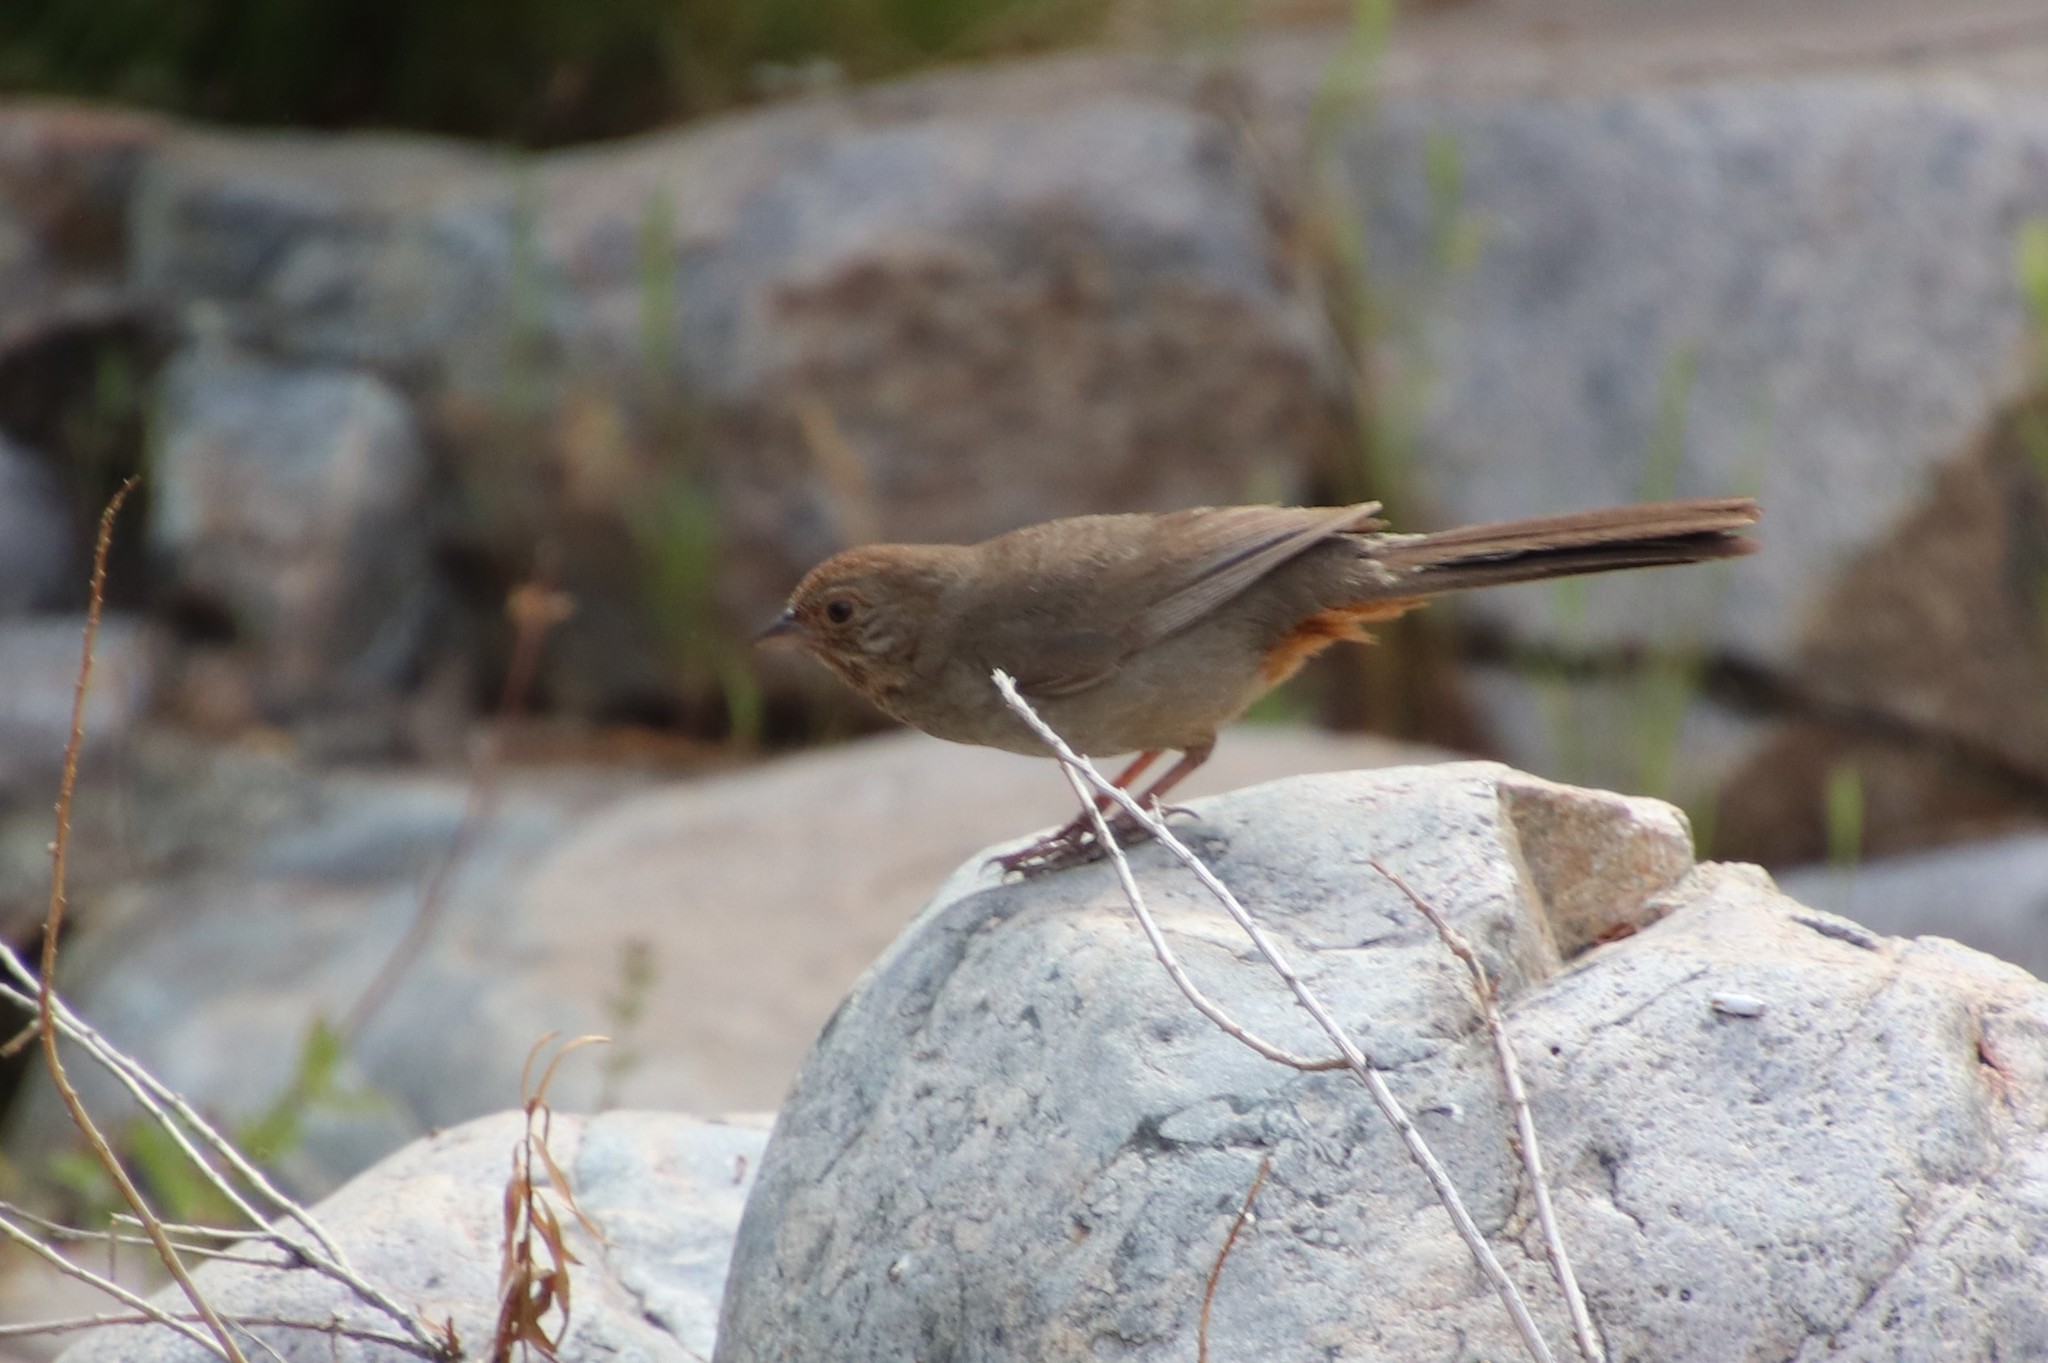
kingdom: Animalia
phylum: Chordata
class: Aves
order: Passeriformes
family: Passerellidae
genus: Melozone
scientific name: Melozone crissalis
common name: California towhee
